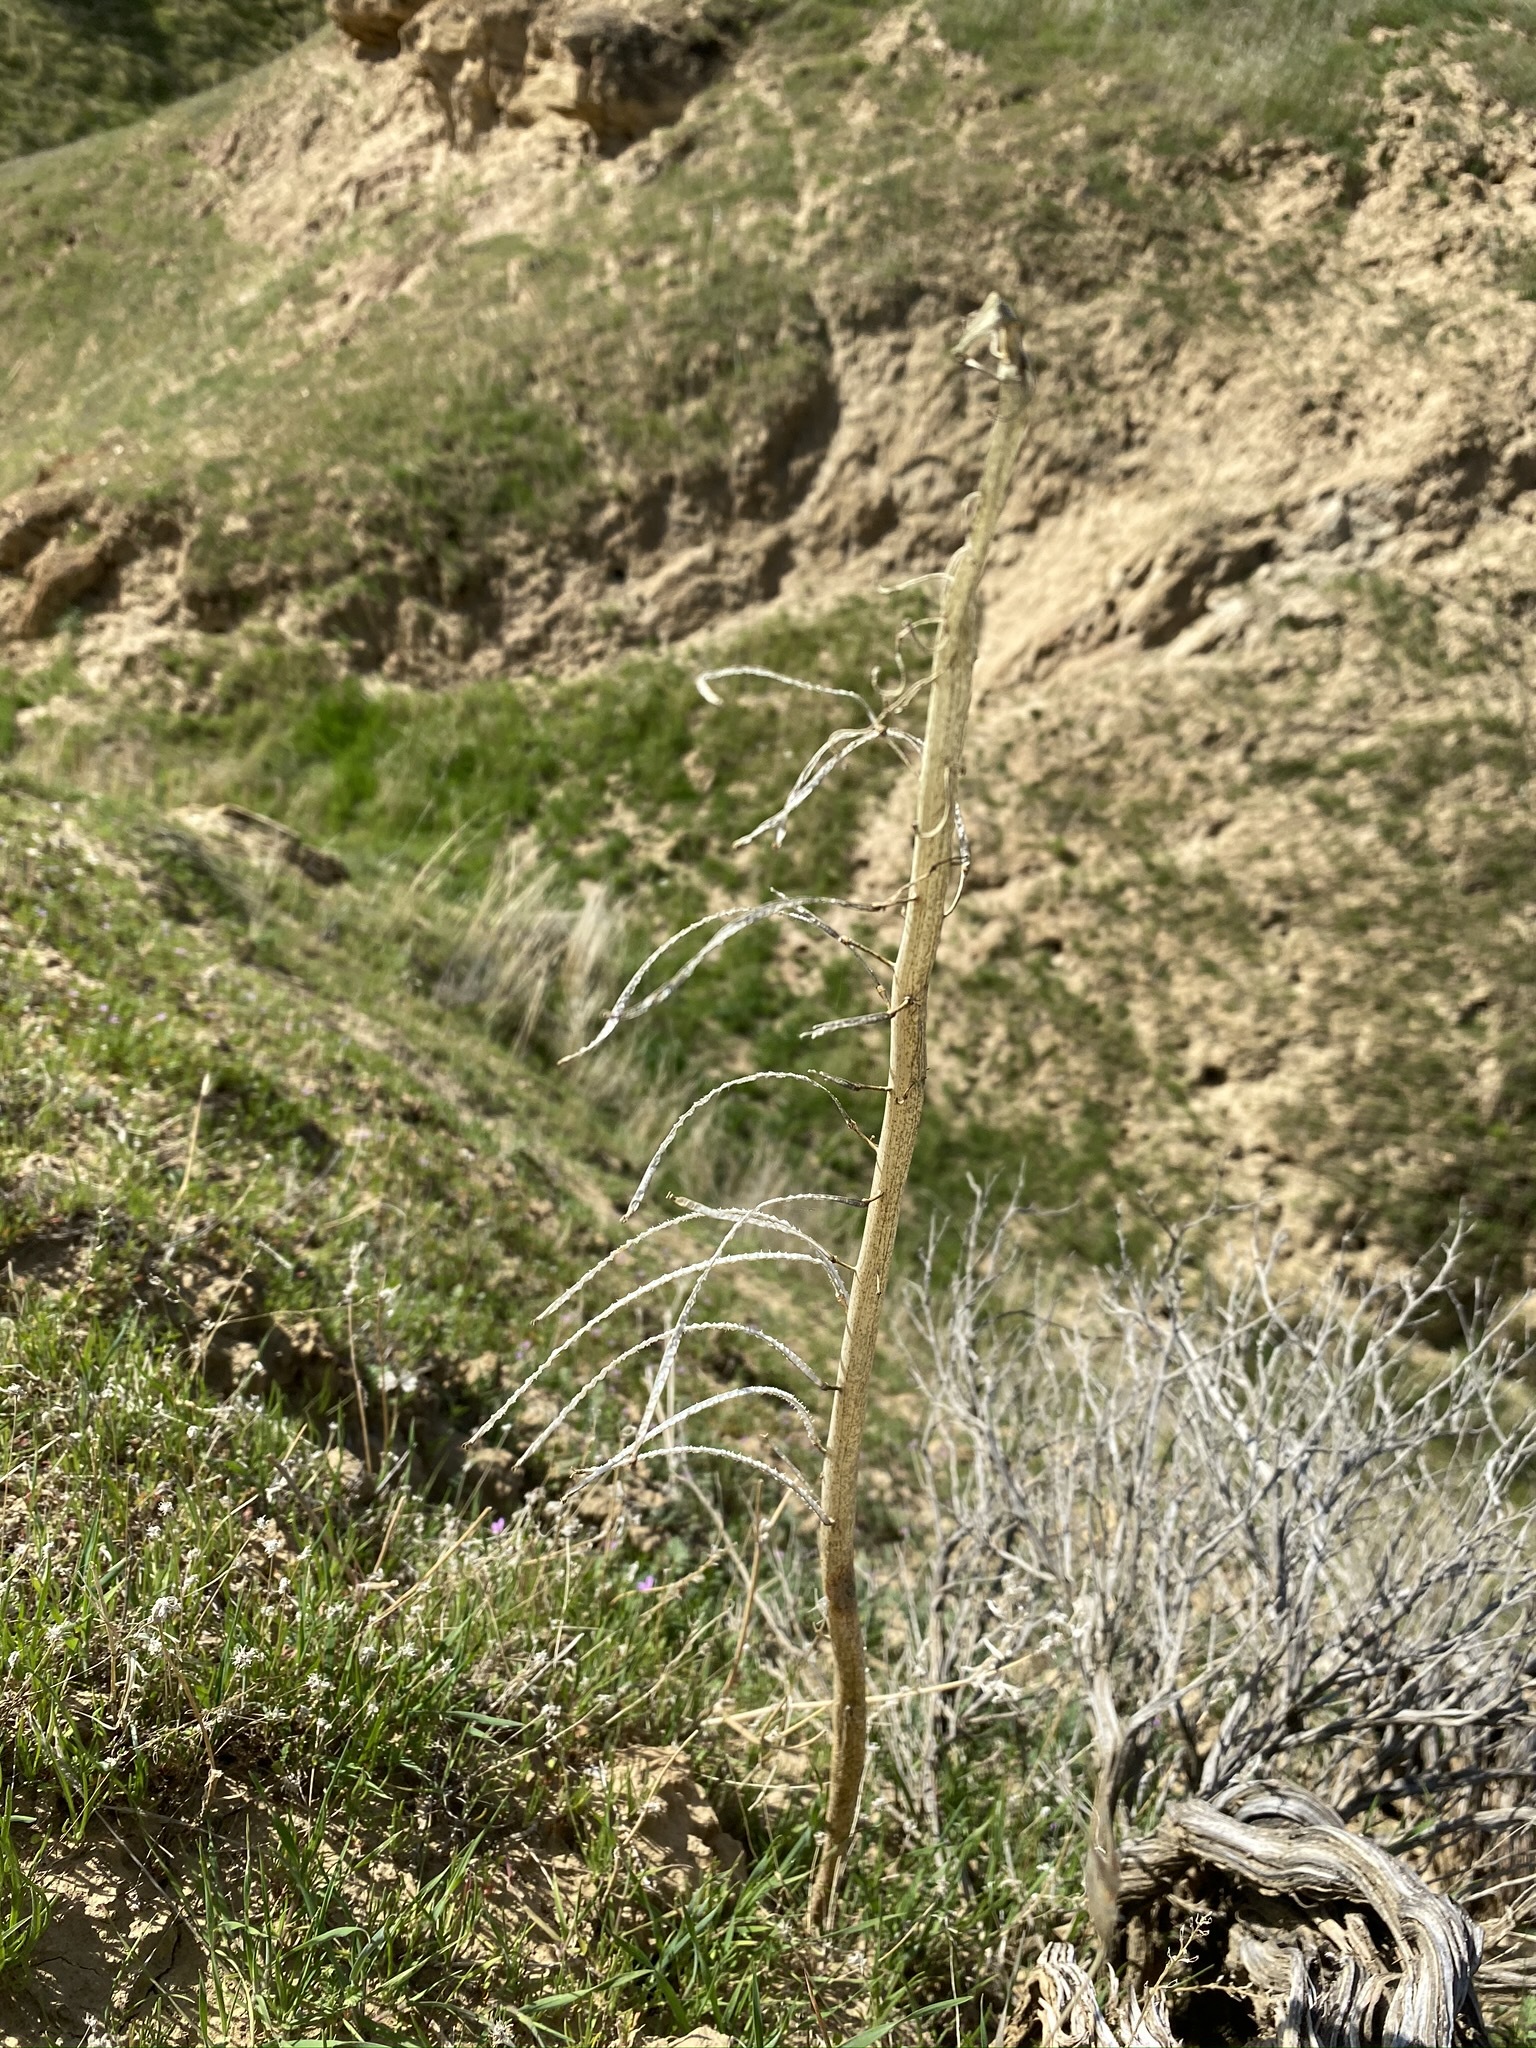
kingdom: Plantae
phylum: Tracheophyta
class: Magnoliopsida
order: Brassicales
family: Brassicaceae
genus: Streptanthus
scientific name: Streptanthus inflatus
